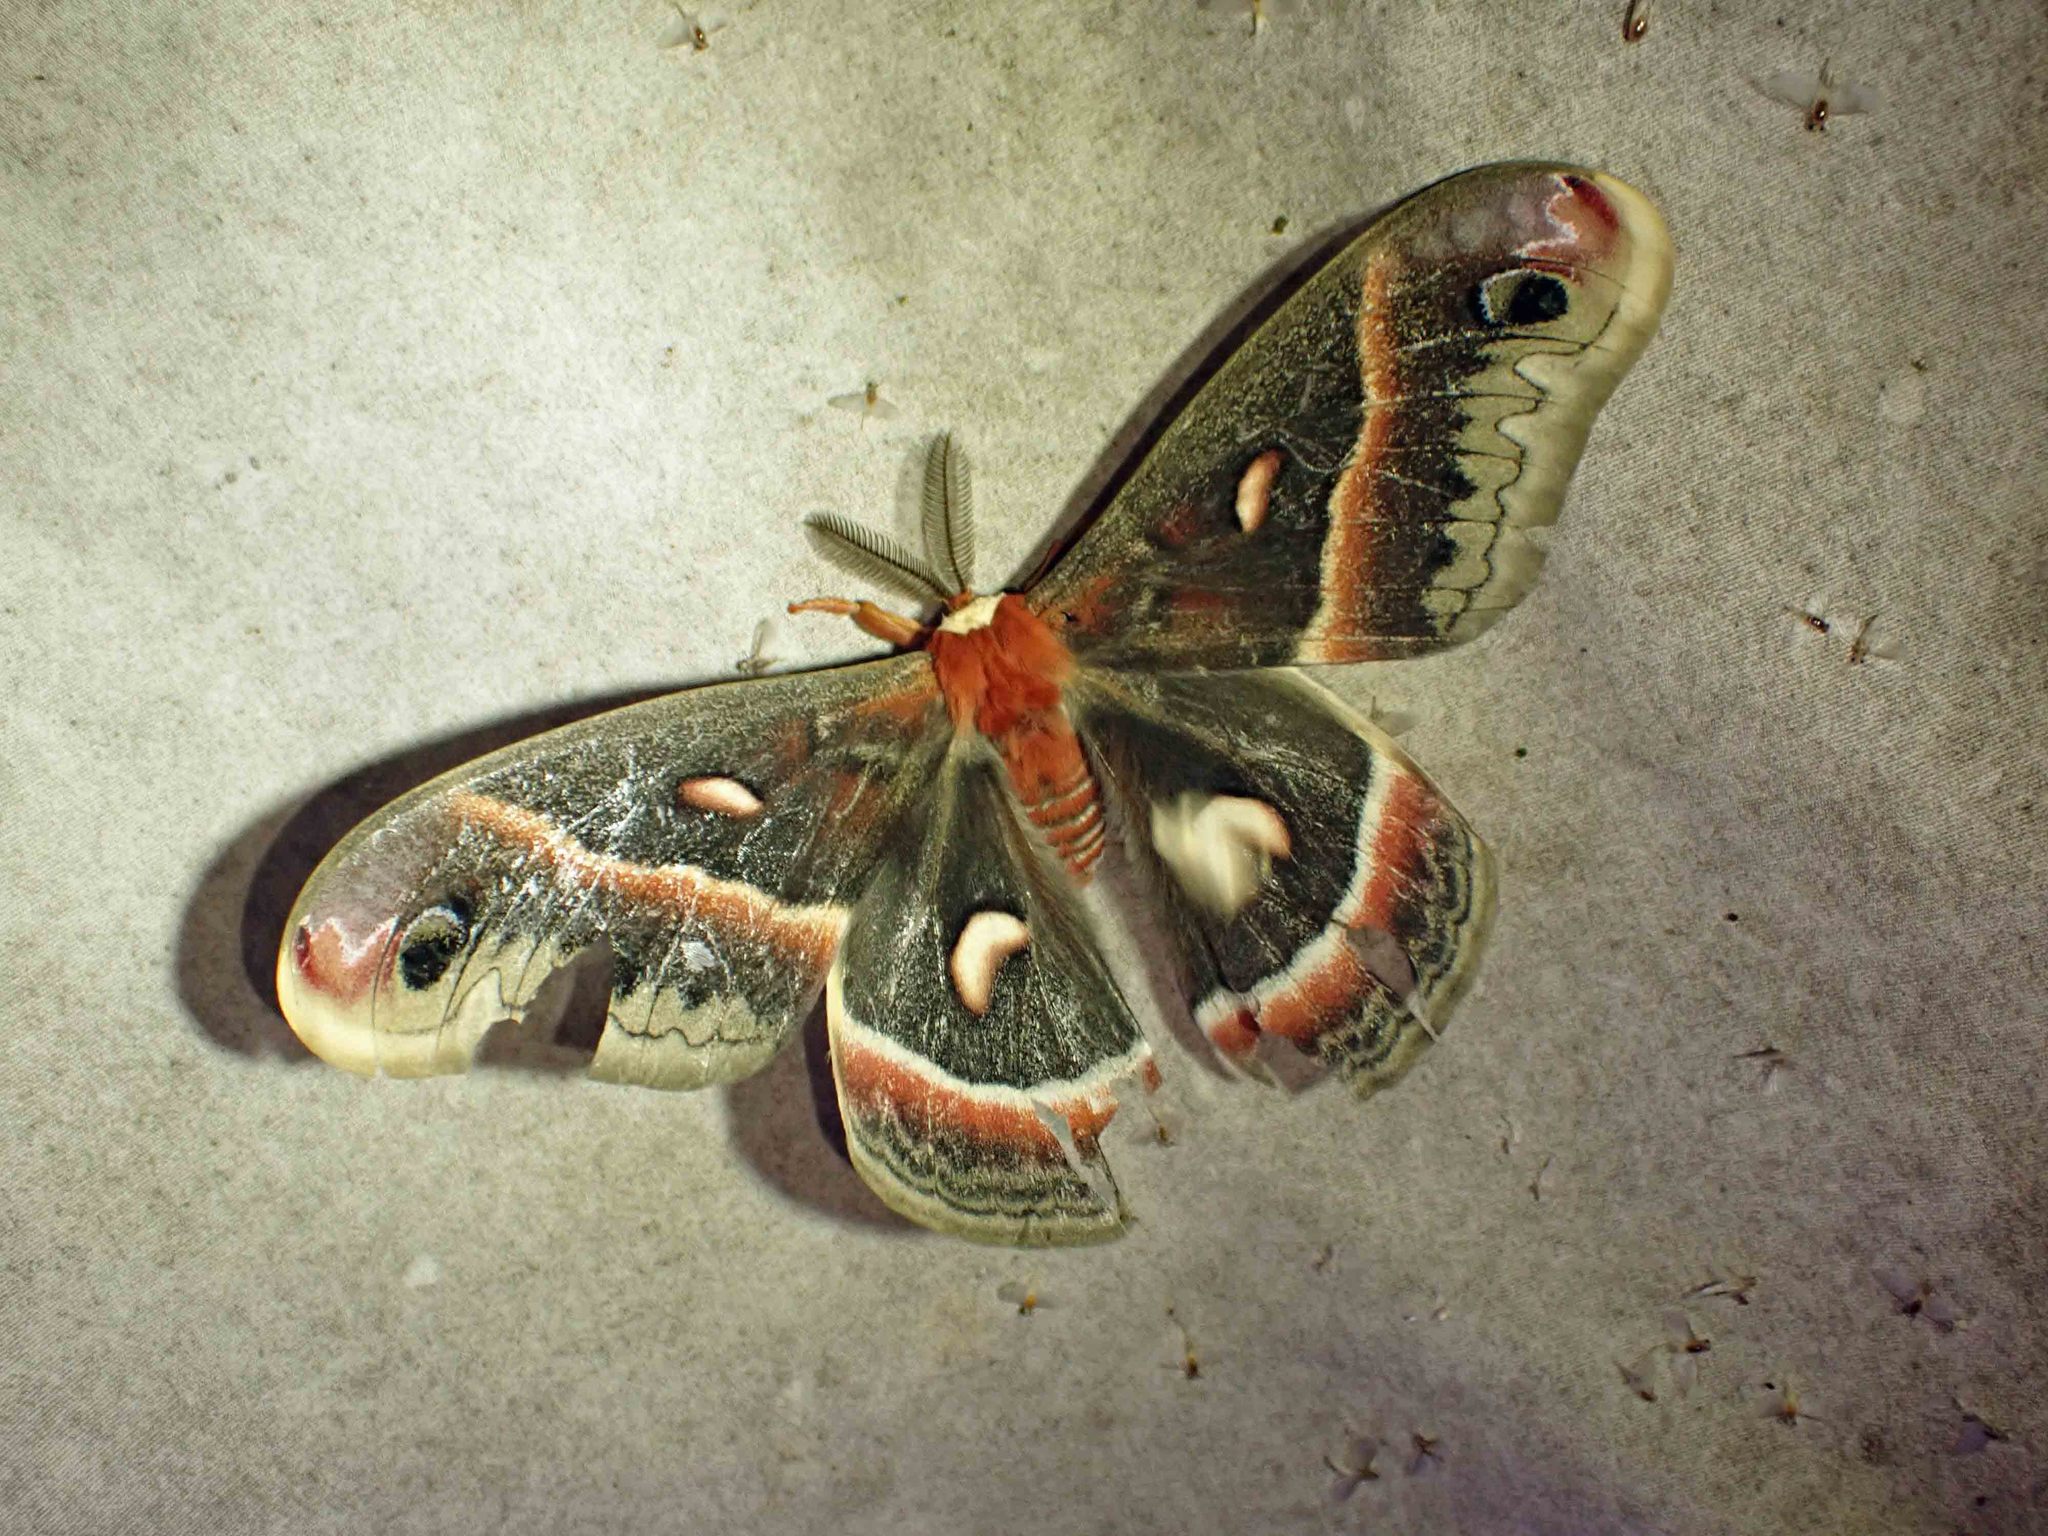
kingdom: Animalia
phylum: Arthropoda
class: Insecta
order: Lepidoptera
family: Saturniidae
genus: Hyalophora
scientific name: Hyalophora cecropia
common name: Cecropia silkmoth
